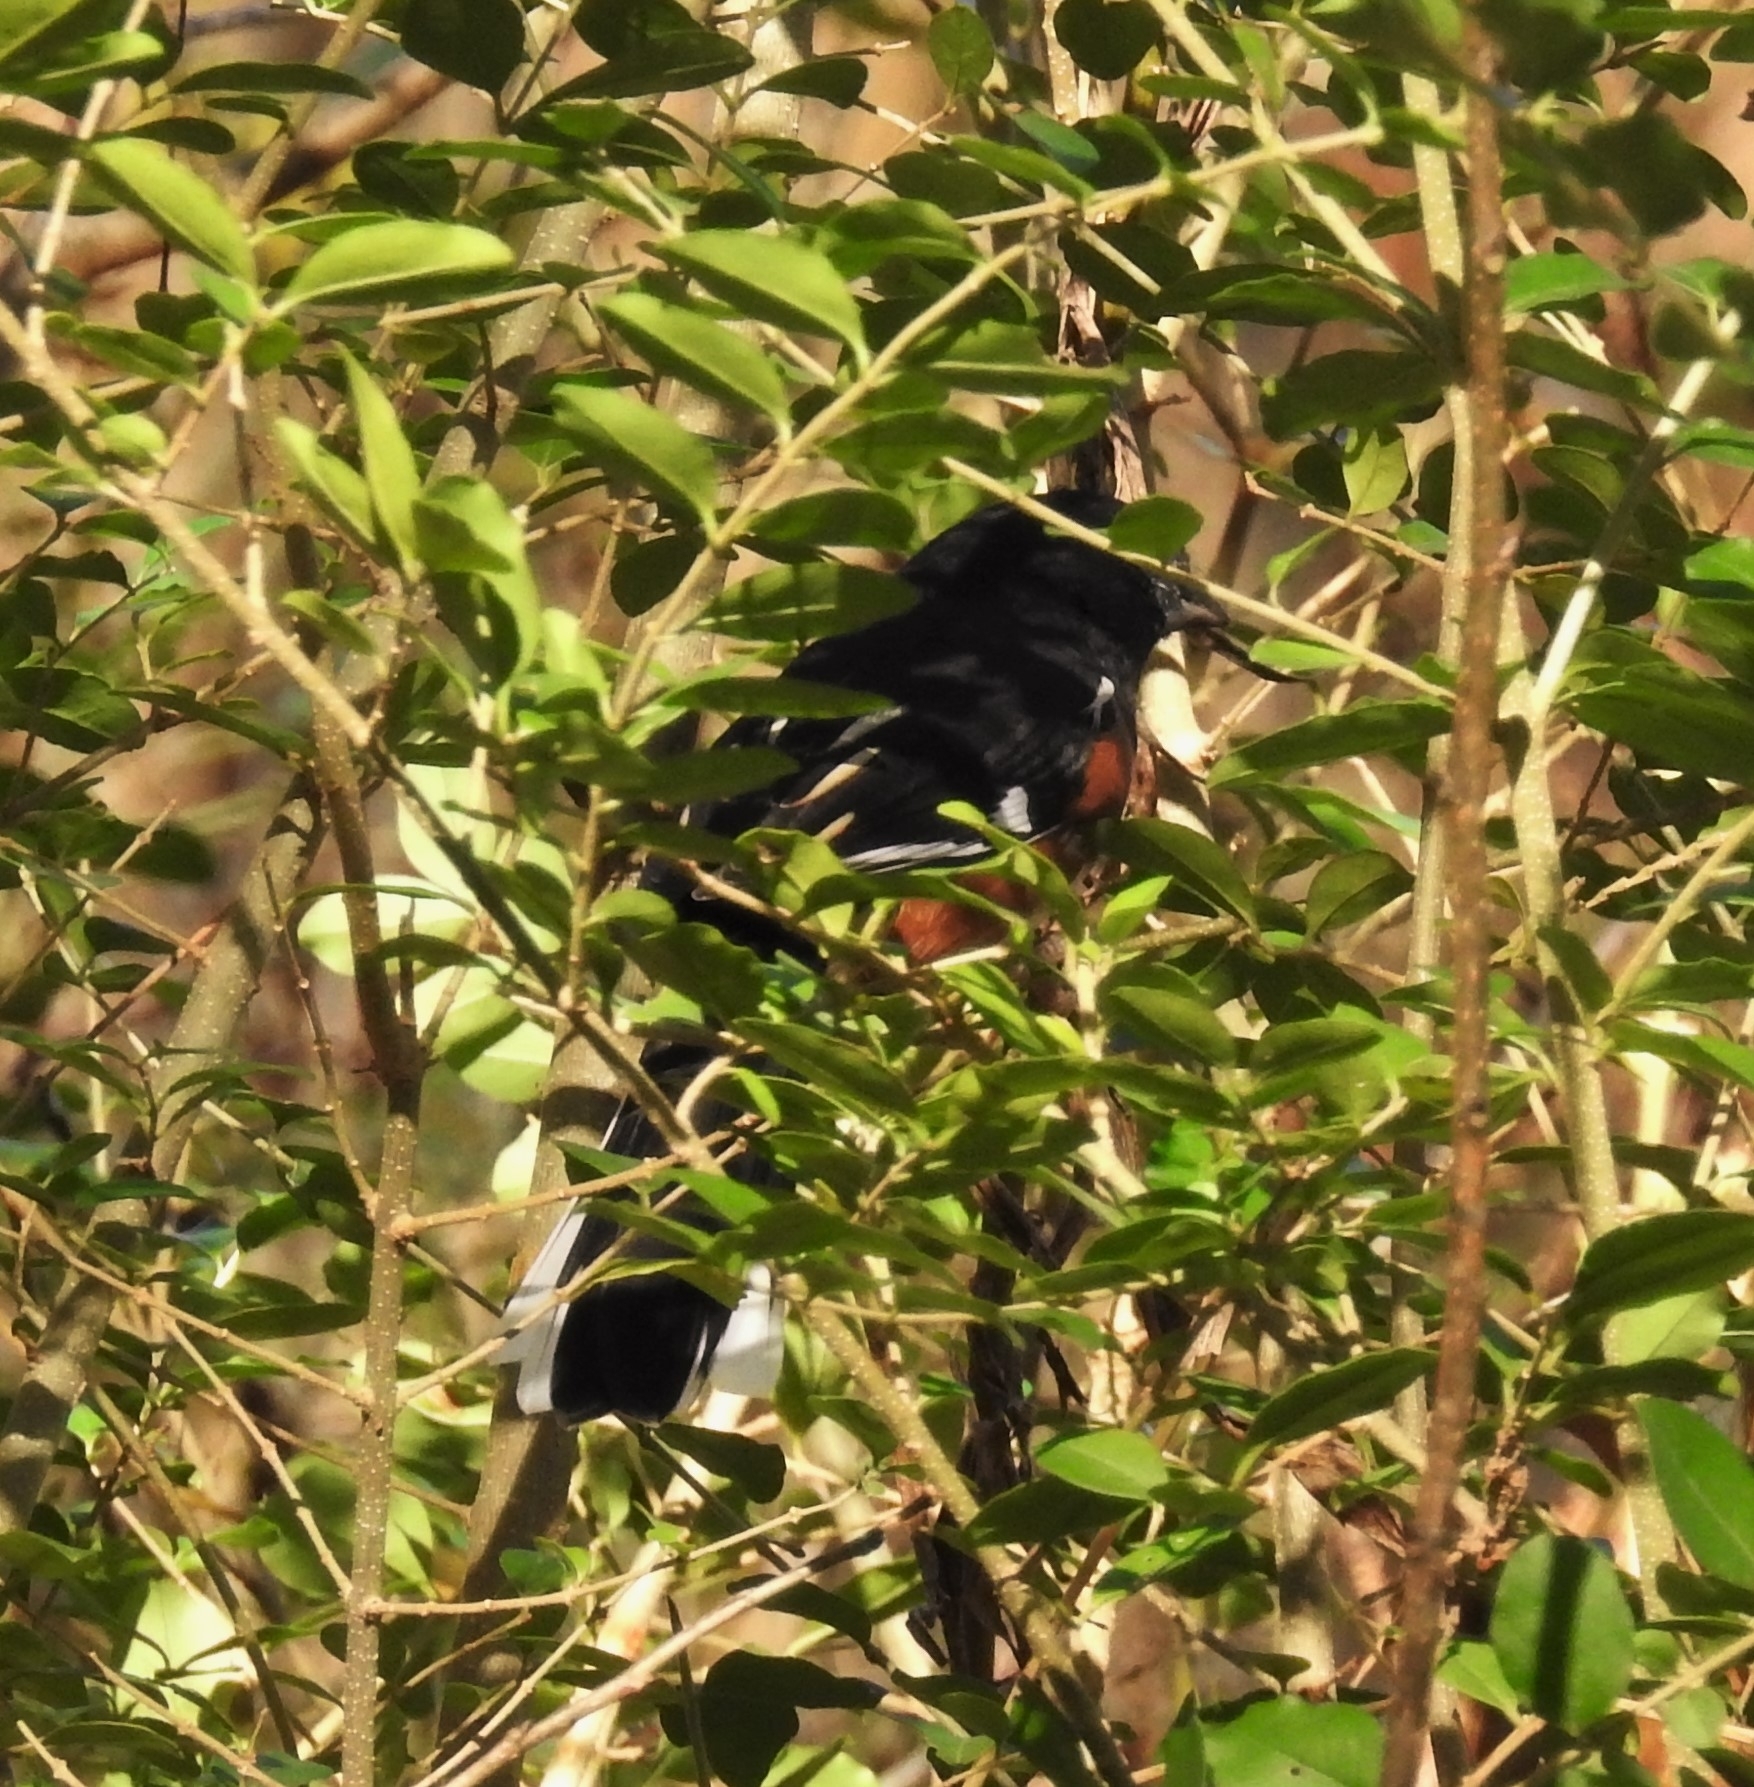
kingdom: Animalia
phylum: Chordata
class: Aves
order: Passeriformes
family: Passerellidae
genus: Pipilo
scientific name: Pipilo erythrophthalmus
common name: Eastern towhee
